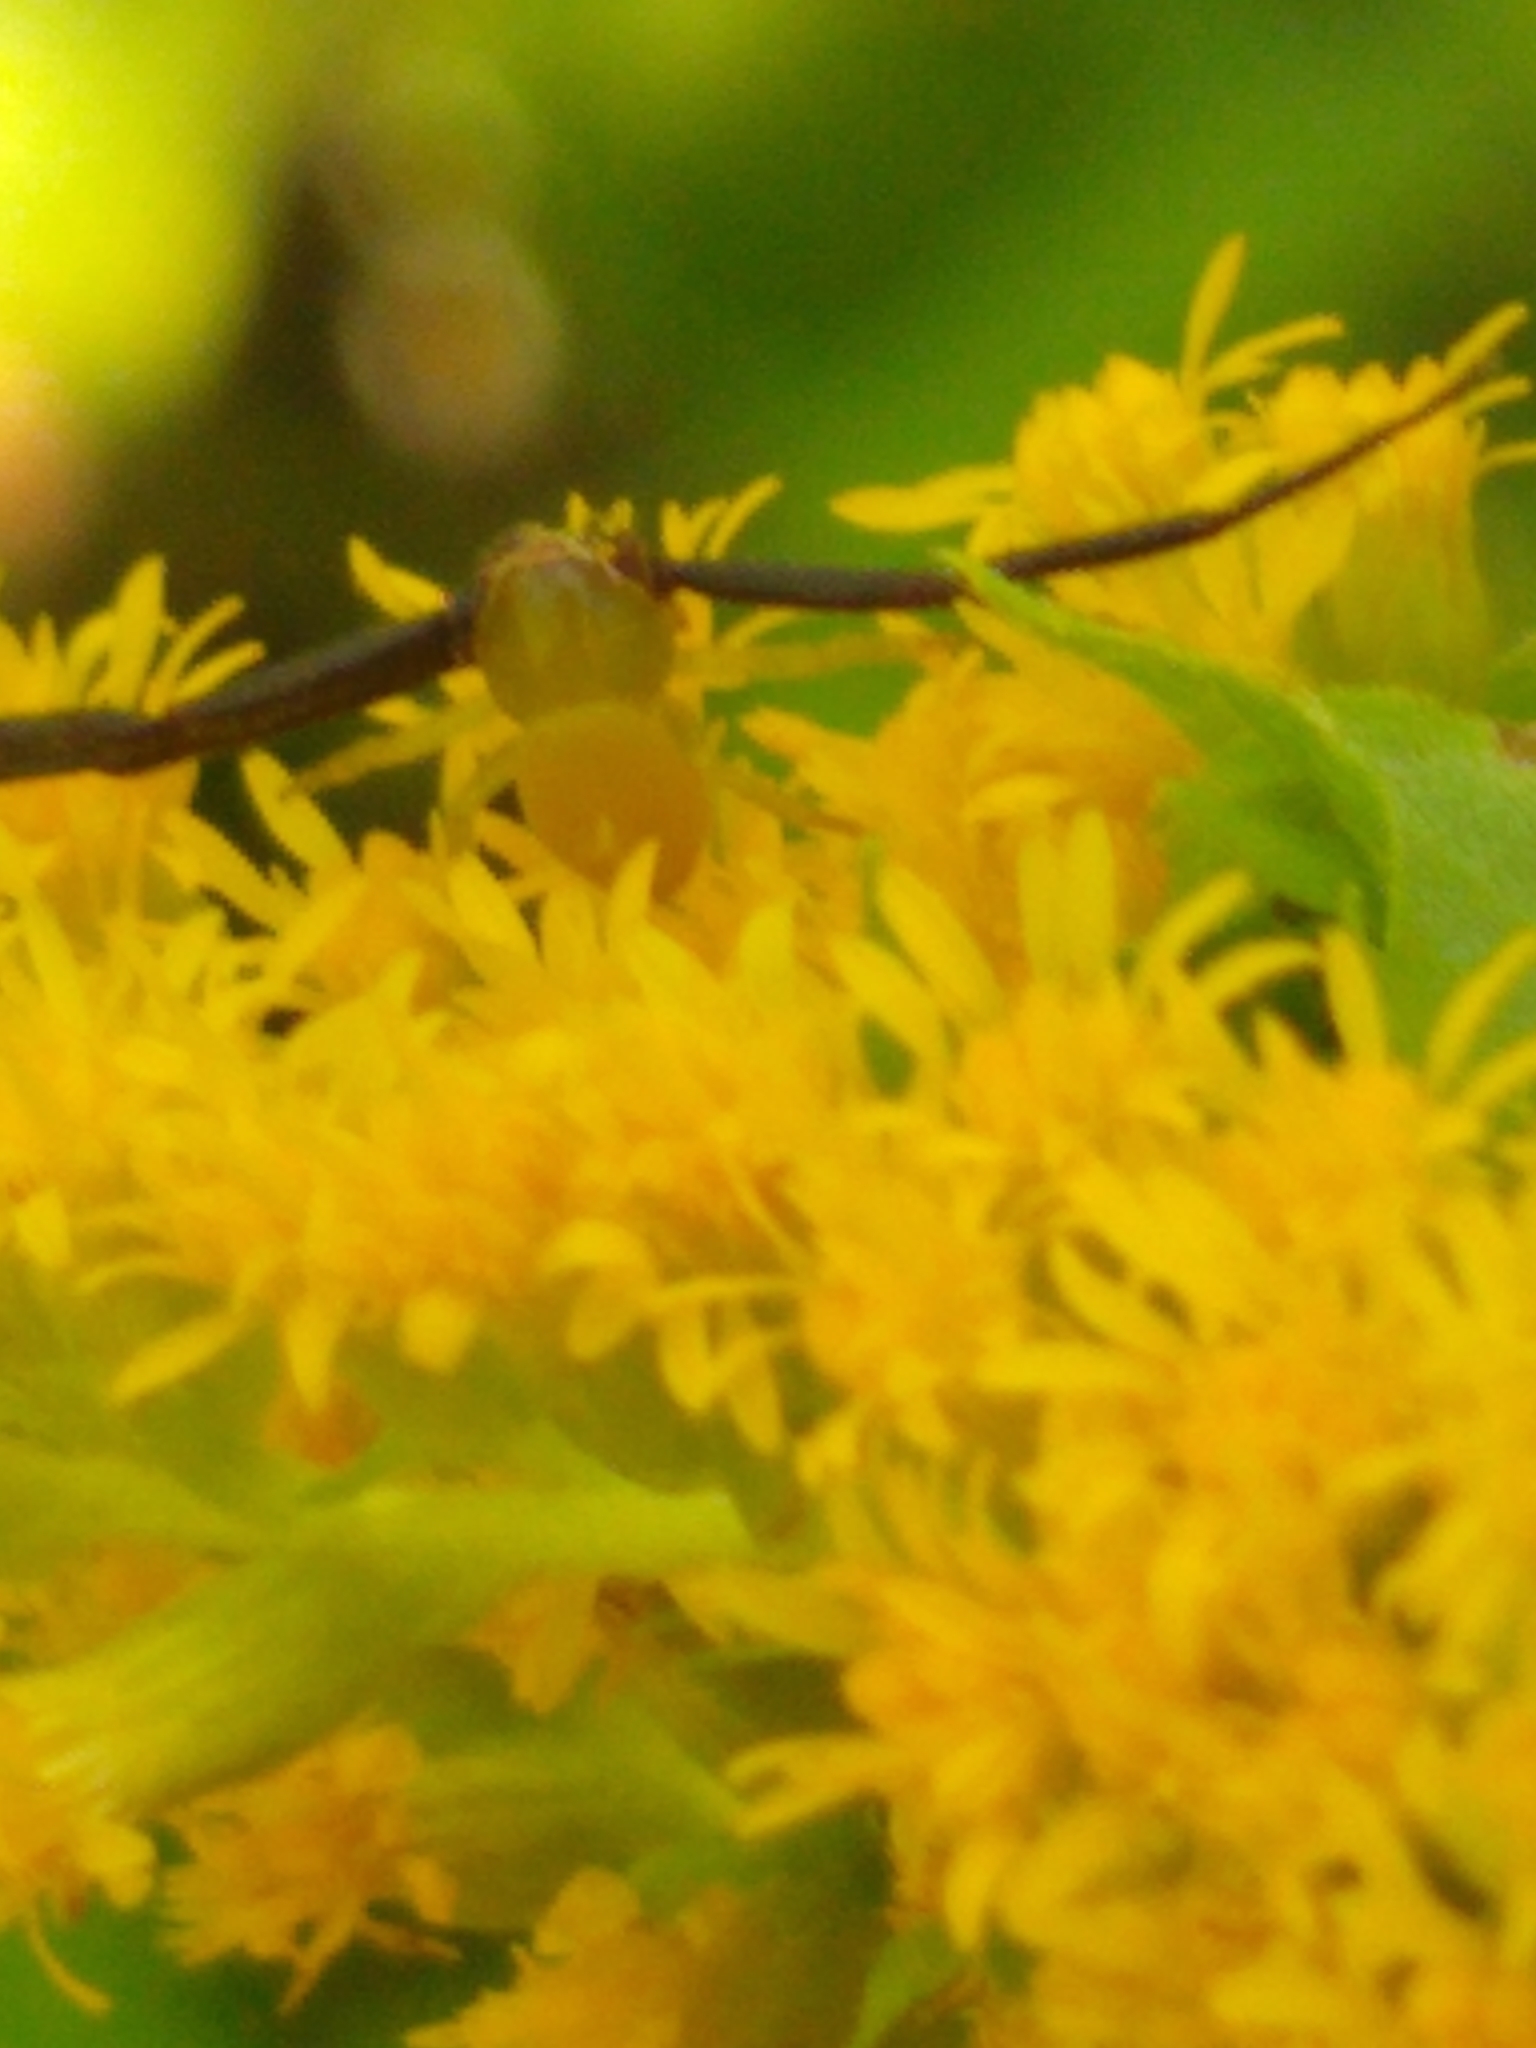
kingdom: Animalia
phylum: Arthropoda
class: Arachnida
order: Araneae
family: Thomisidae
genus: Misumenoides
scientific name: Misumenoides formosipes
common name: White-banded crab spider
